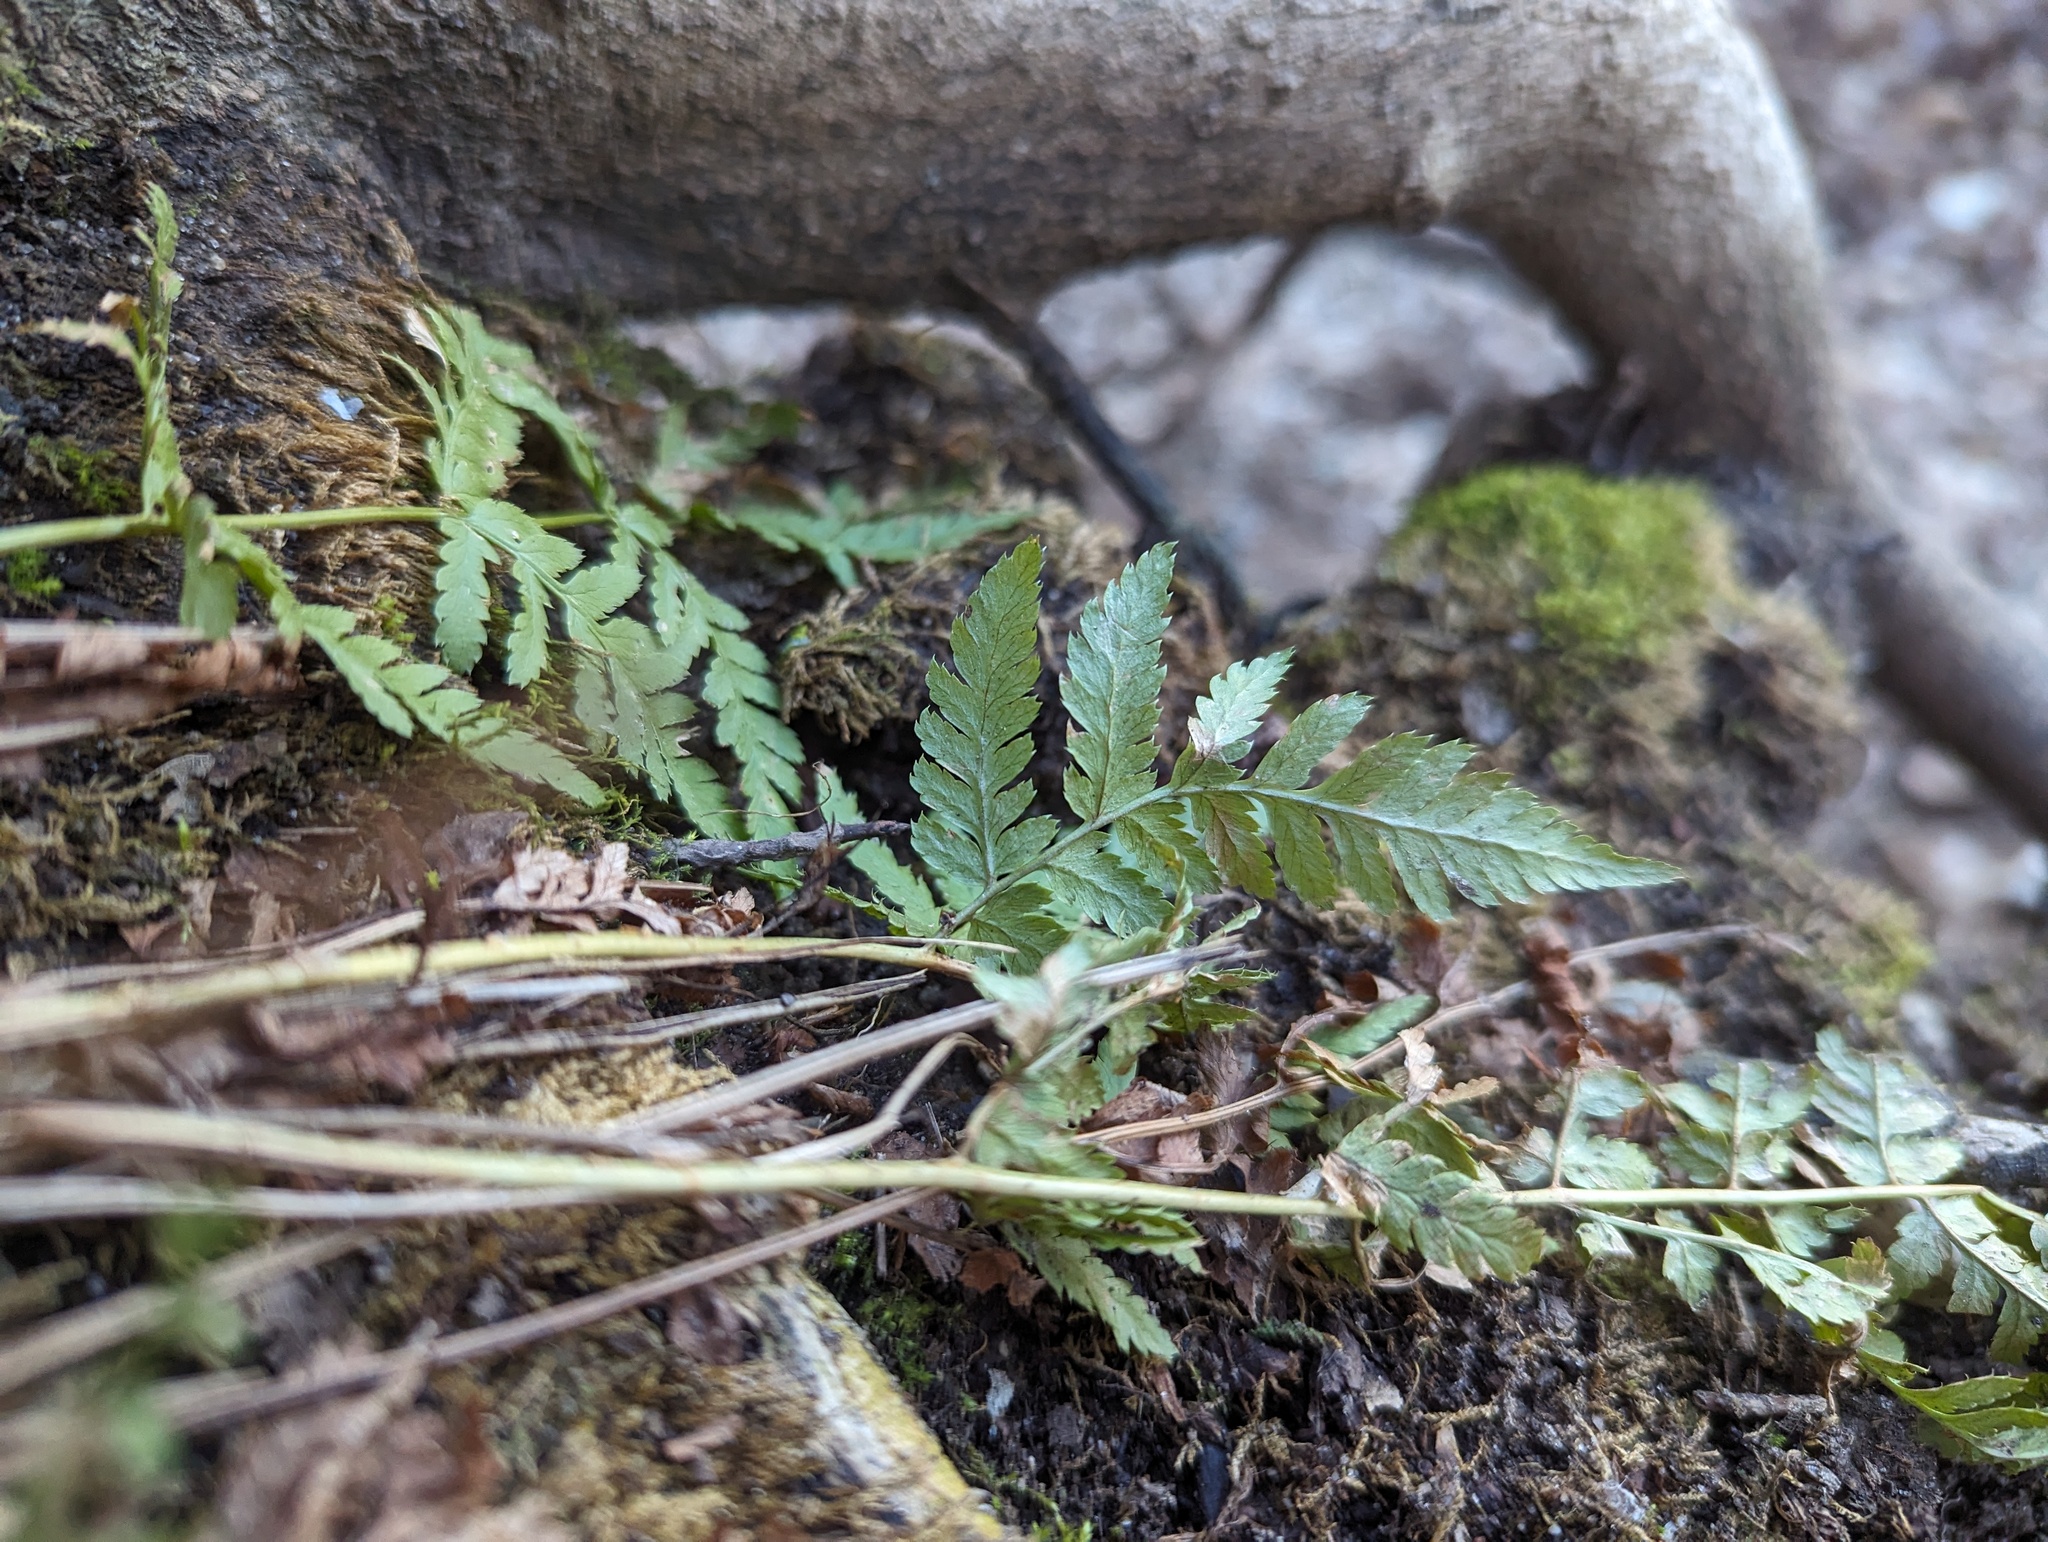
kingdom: Plantae
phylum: Tracheophyta
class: Polypodiopsida
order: Polypodiales
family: Dryopteridaceae
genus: Dryopteris
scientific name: Dryopteris carthusiana
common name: Narrow buckler-fern
